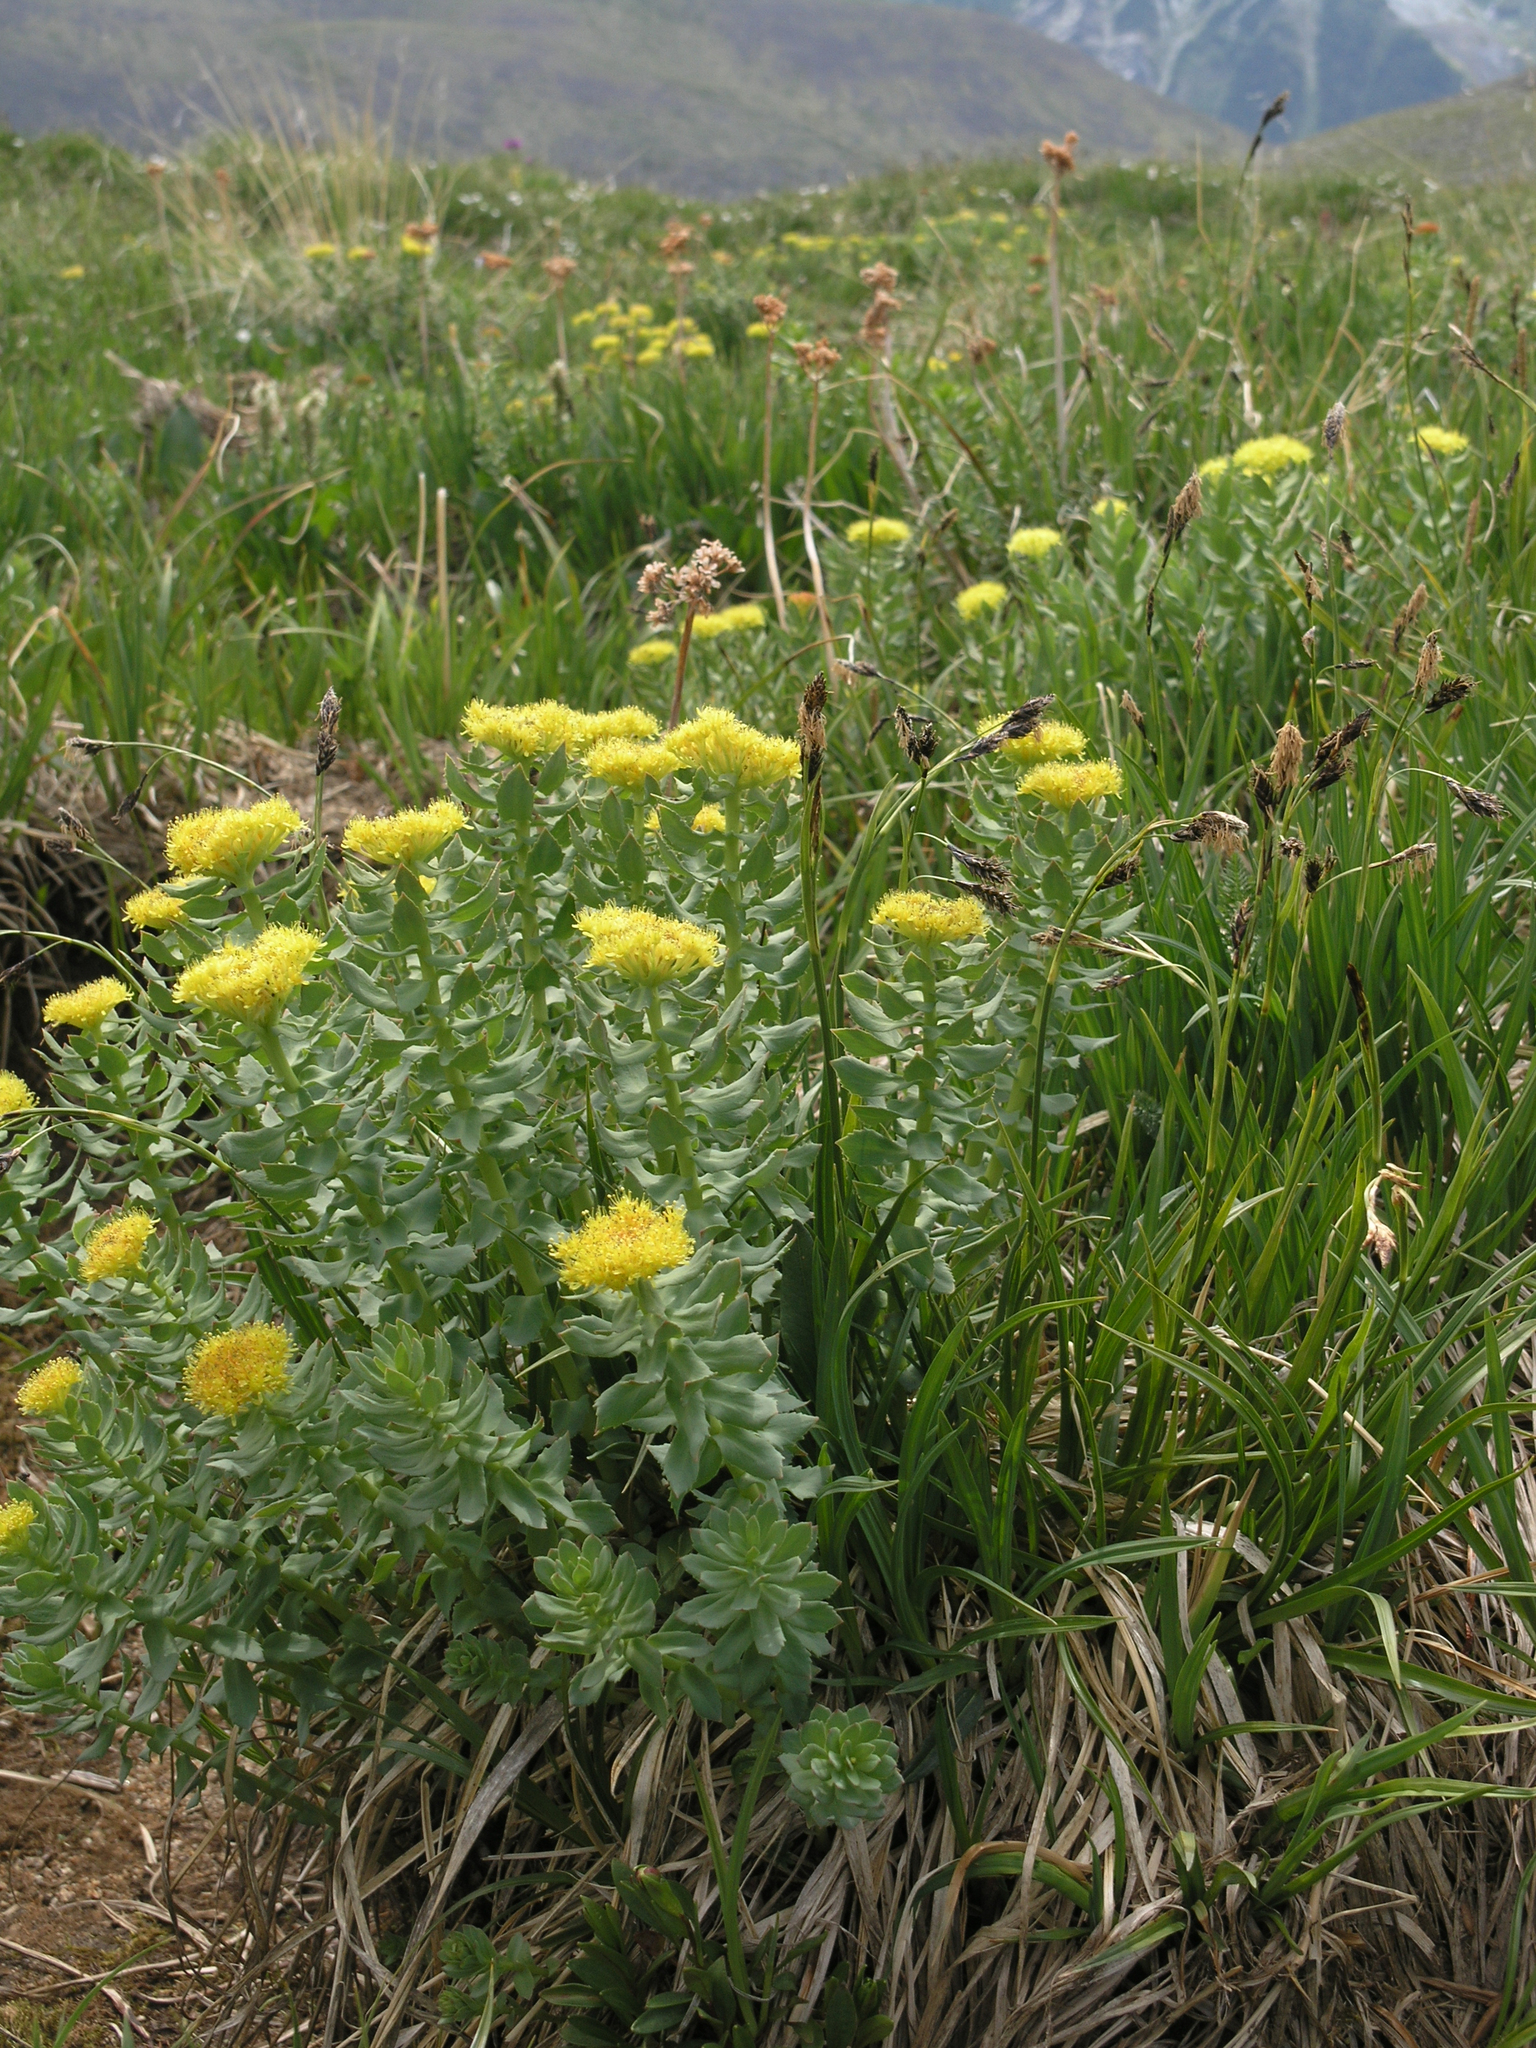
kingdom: Plantae
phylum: Tracheophyta
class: Magnoliopsida
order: Saxifragales
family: Crassulaceae
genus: Rhodiola
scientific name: Rhodiola rosea
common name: Roseroot
